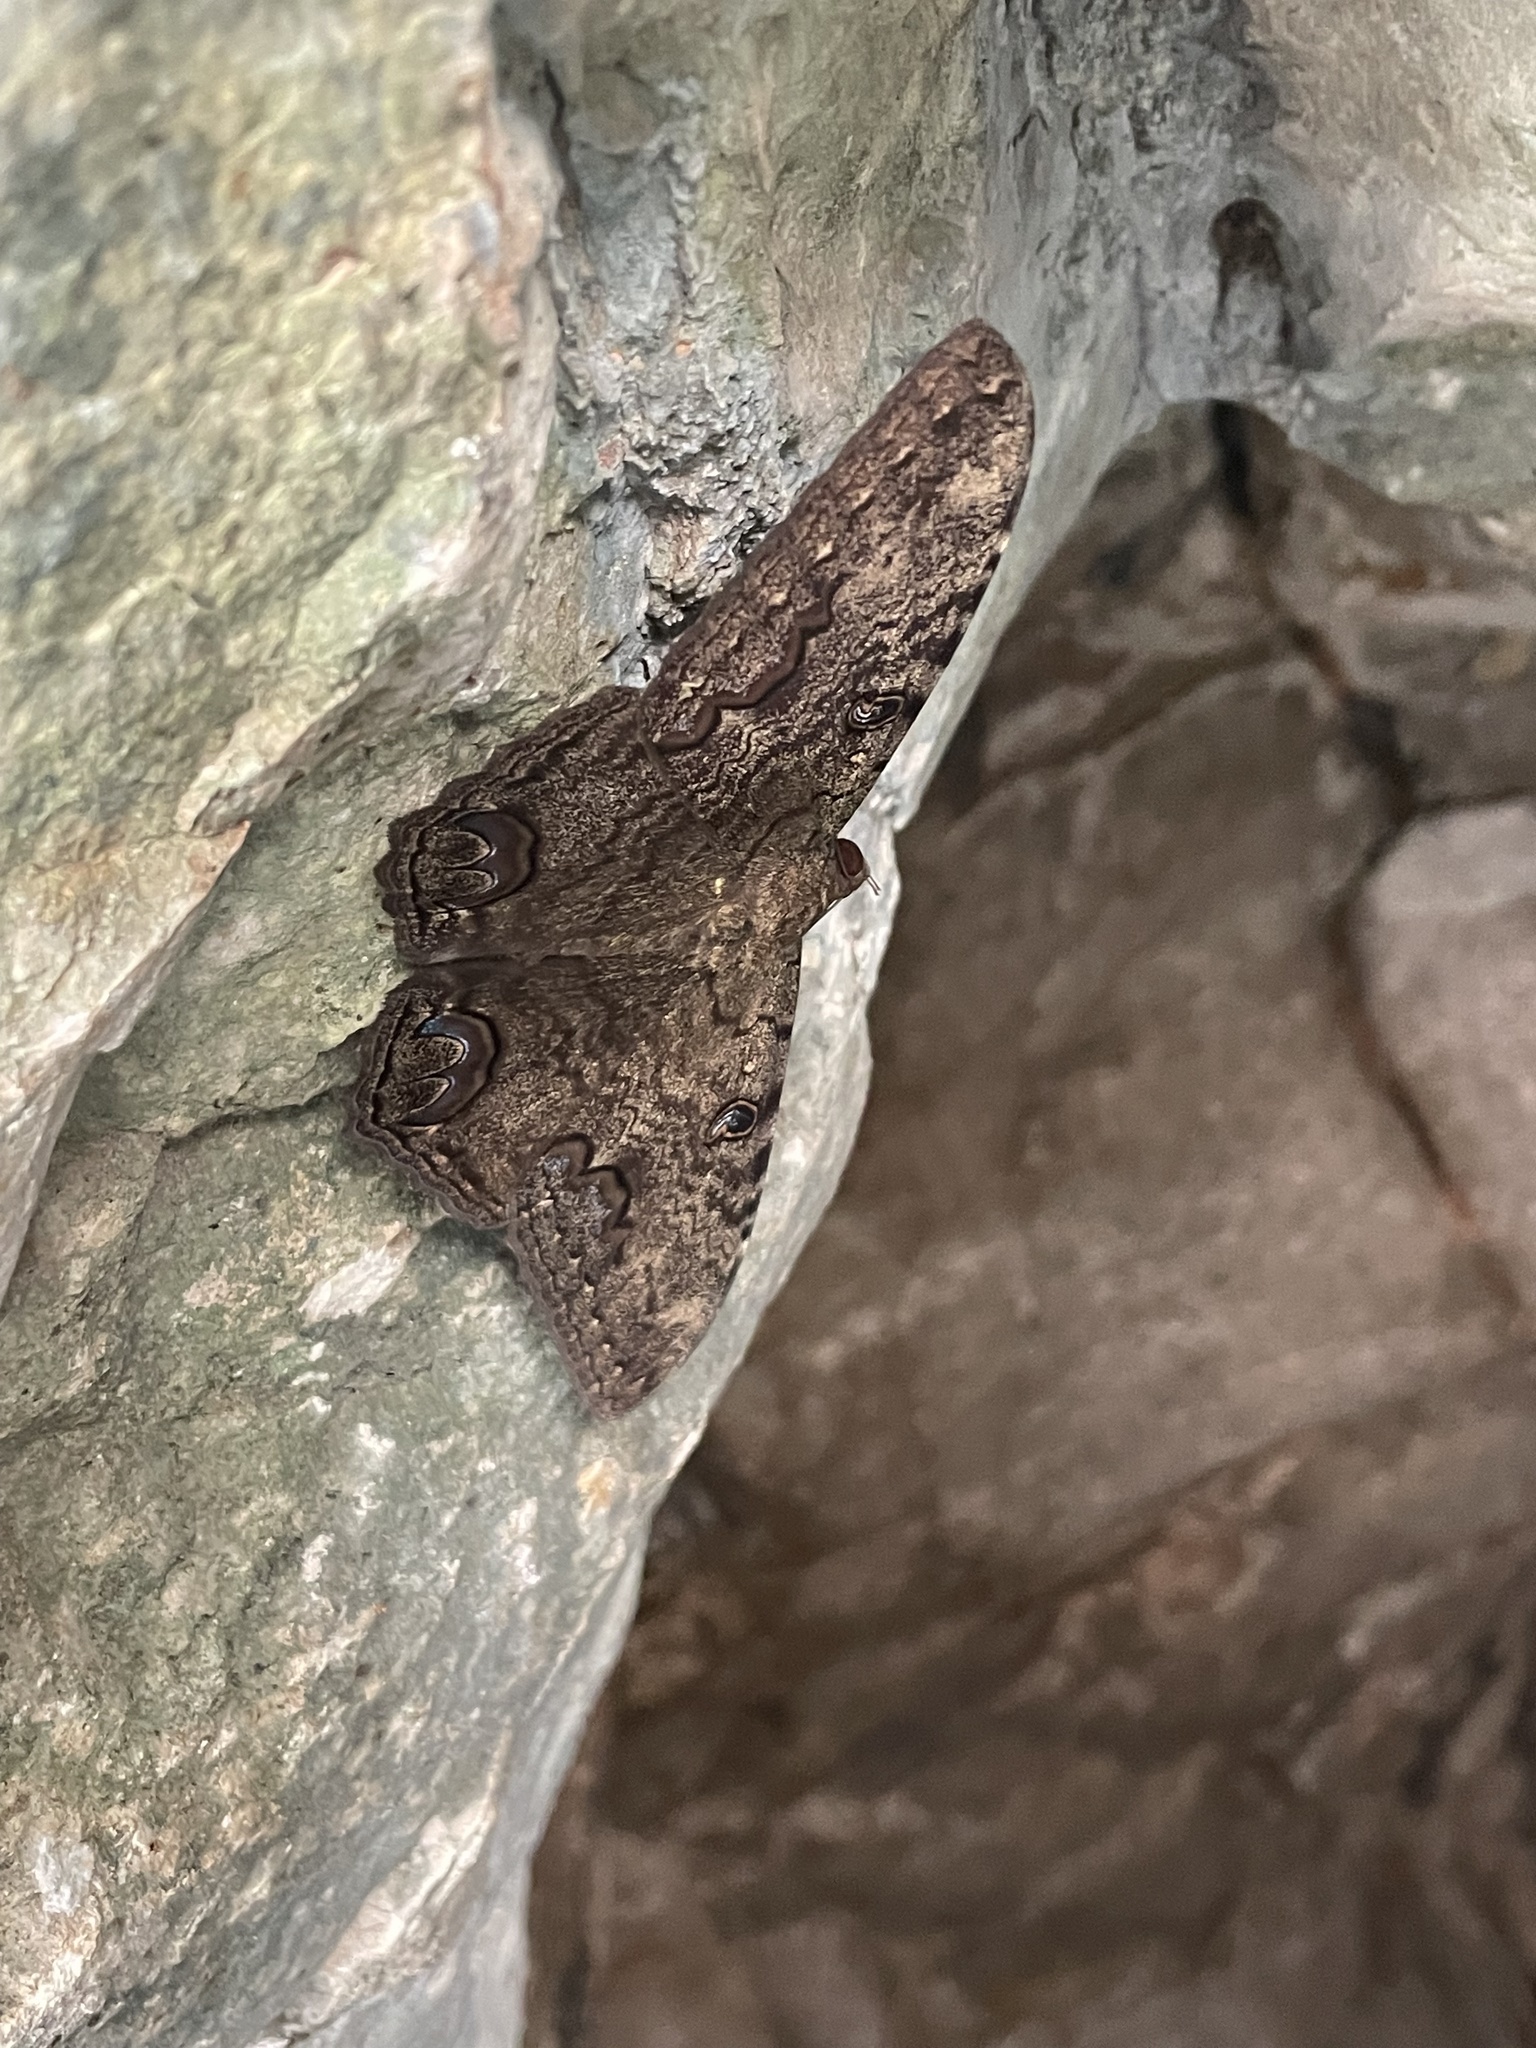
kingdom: Animalia
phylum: Arthropoda
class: Insecta
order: Lepidoptera
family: Erebidae
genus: Ascalapha
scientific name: Ascalapha odorata
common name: Black witch
